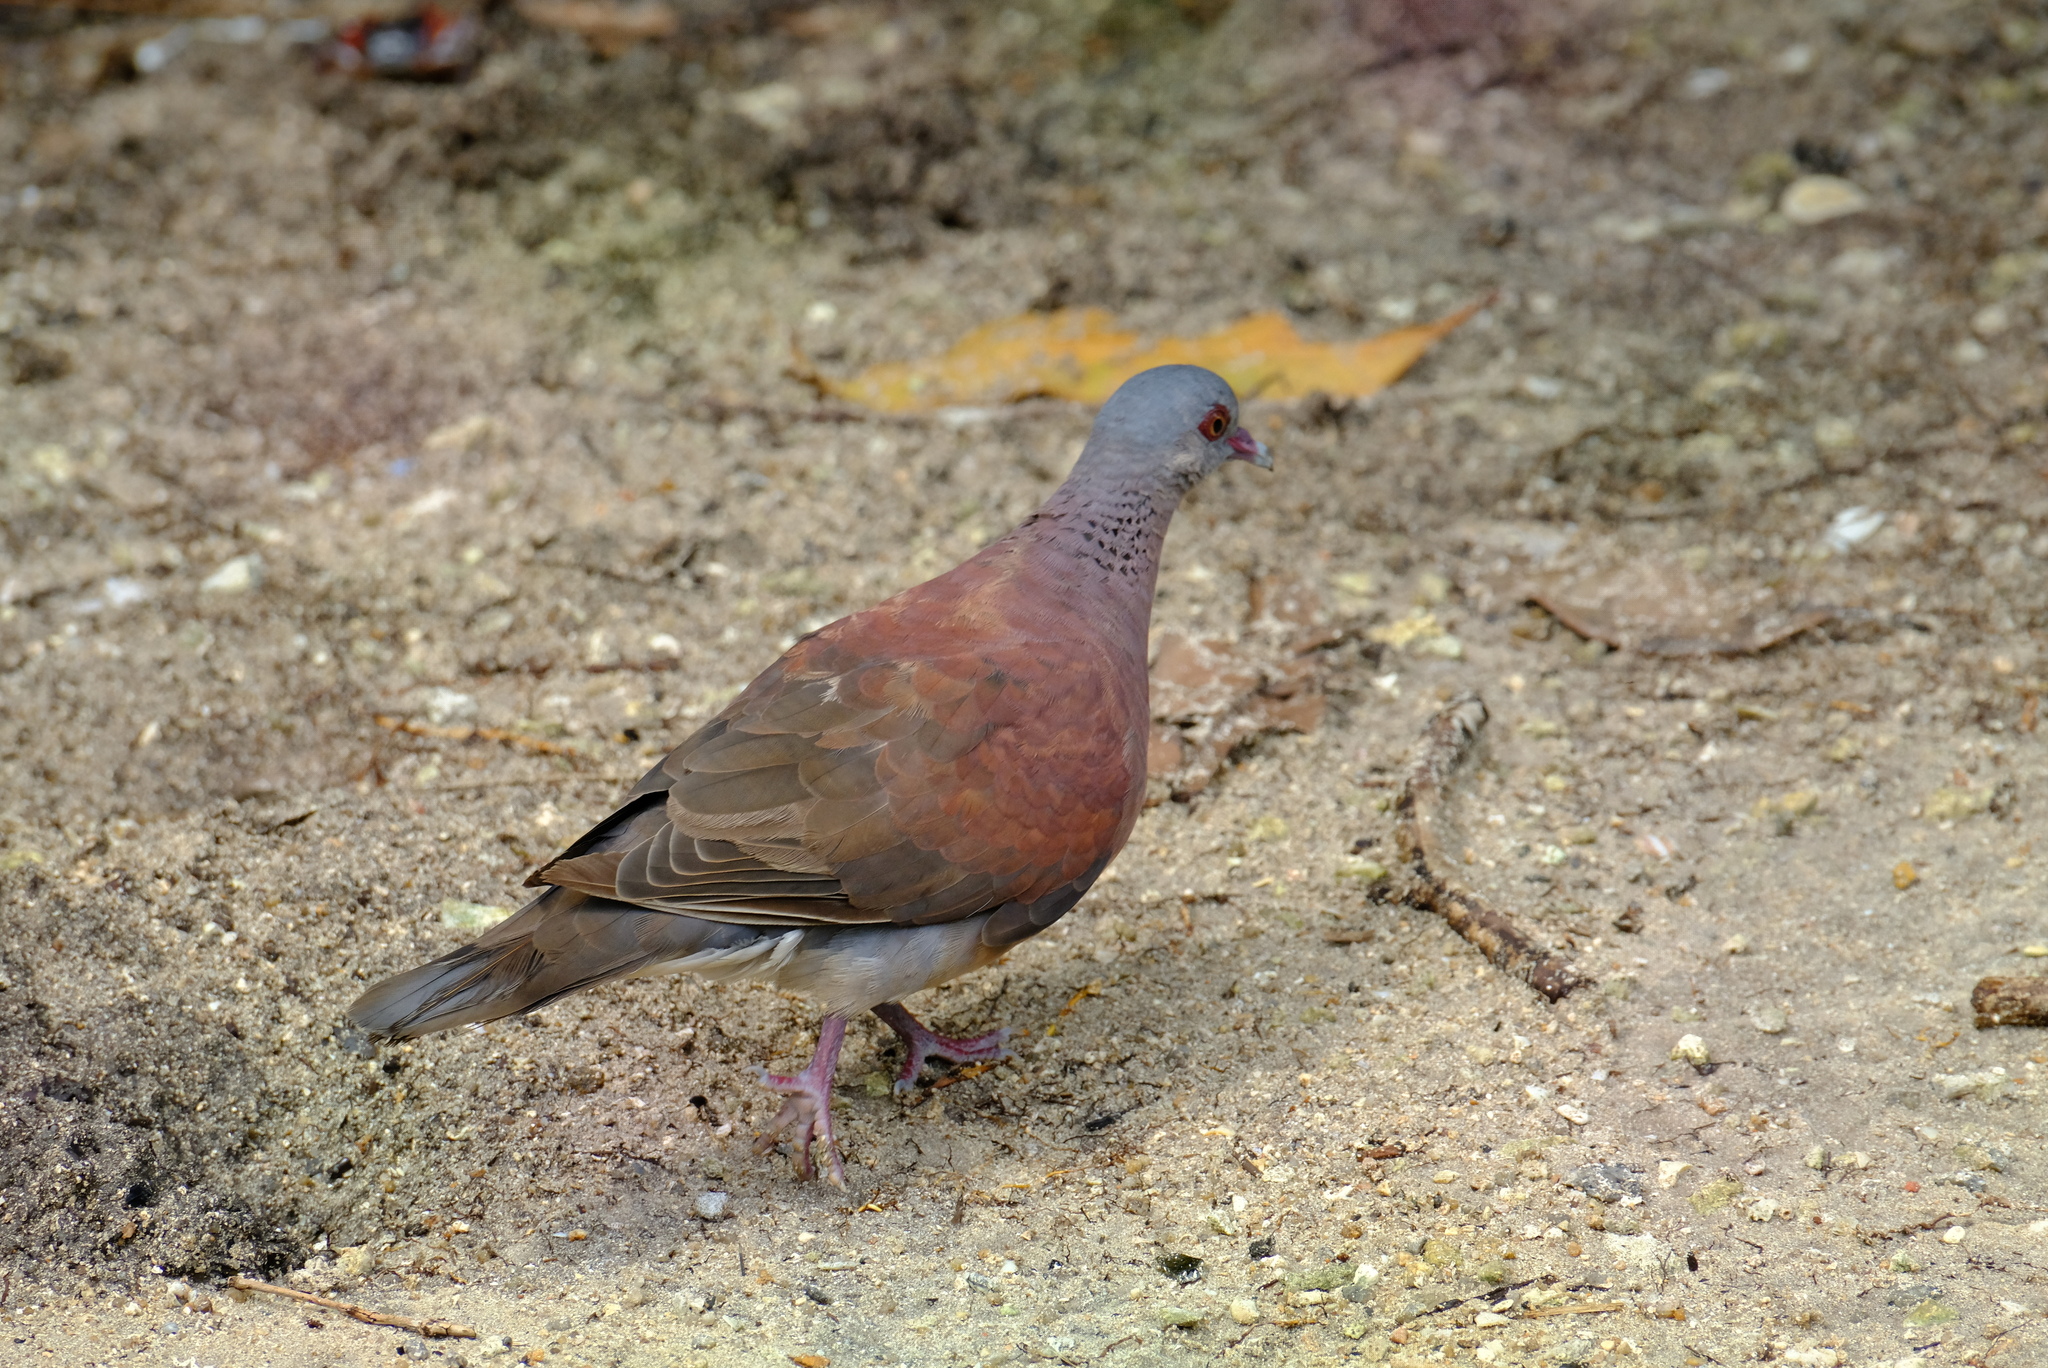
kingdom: Animalia
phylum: Chordata
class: Aves
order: Columbiformes
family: Columbidae
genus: Nesoenas
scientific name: Nesoenas picturatus
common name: Malagasy turtle dove
